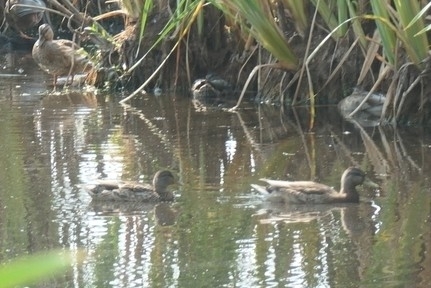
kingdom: Animalia
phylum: Chordata
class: Aves
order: Anseriformes
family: Anatidae
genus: Anas
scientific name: Anas platyrhynchos
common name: Mallard
